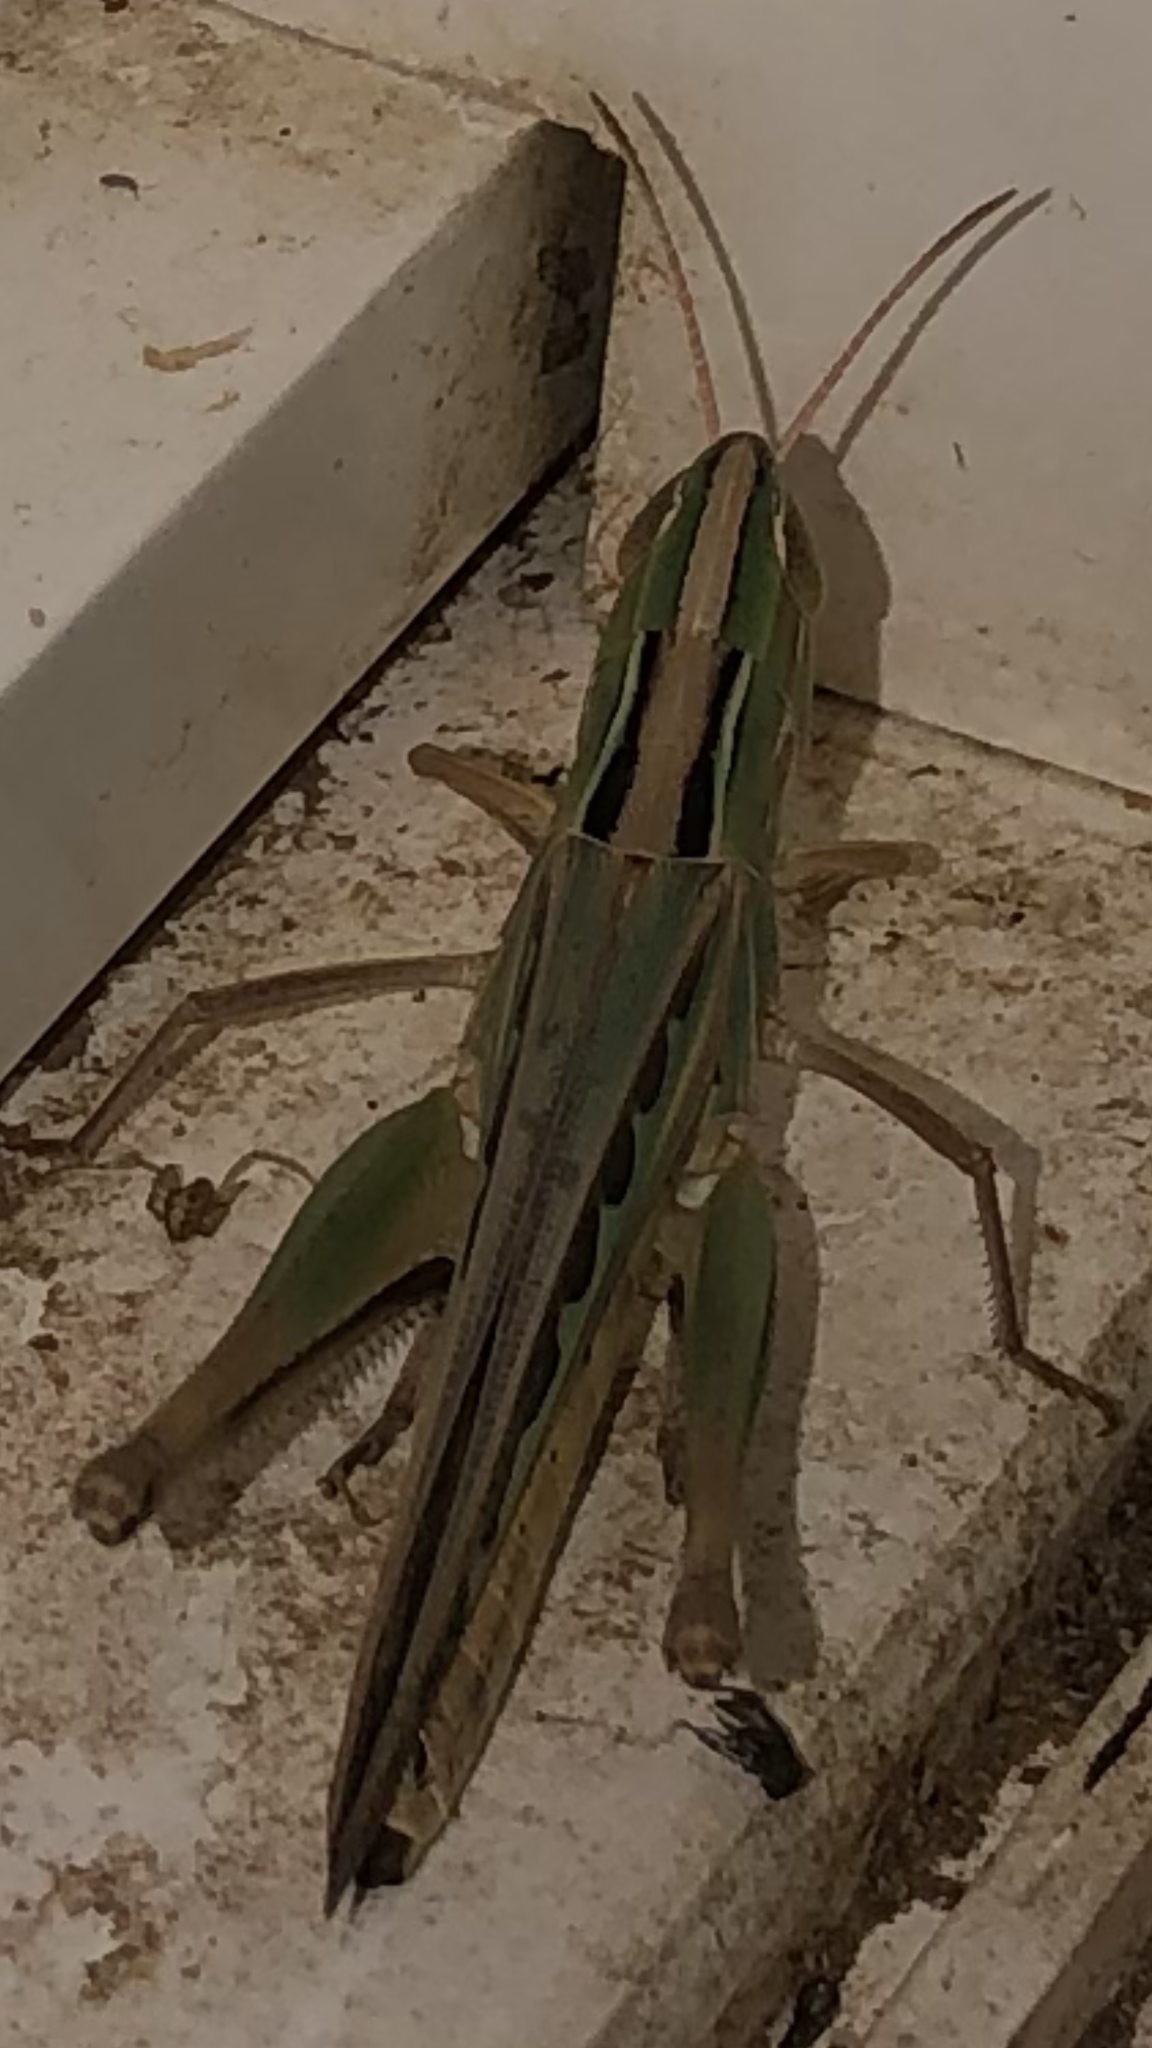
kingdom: Animalia
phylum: Arthropoda
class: Insecta
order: Orthoptera
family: Acrididae
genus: Syrbula
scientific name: Syrbula admirabilis
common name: Handsome grasshopper
